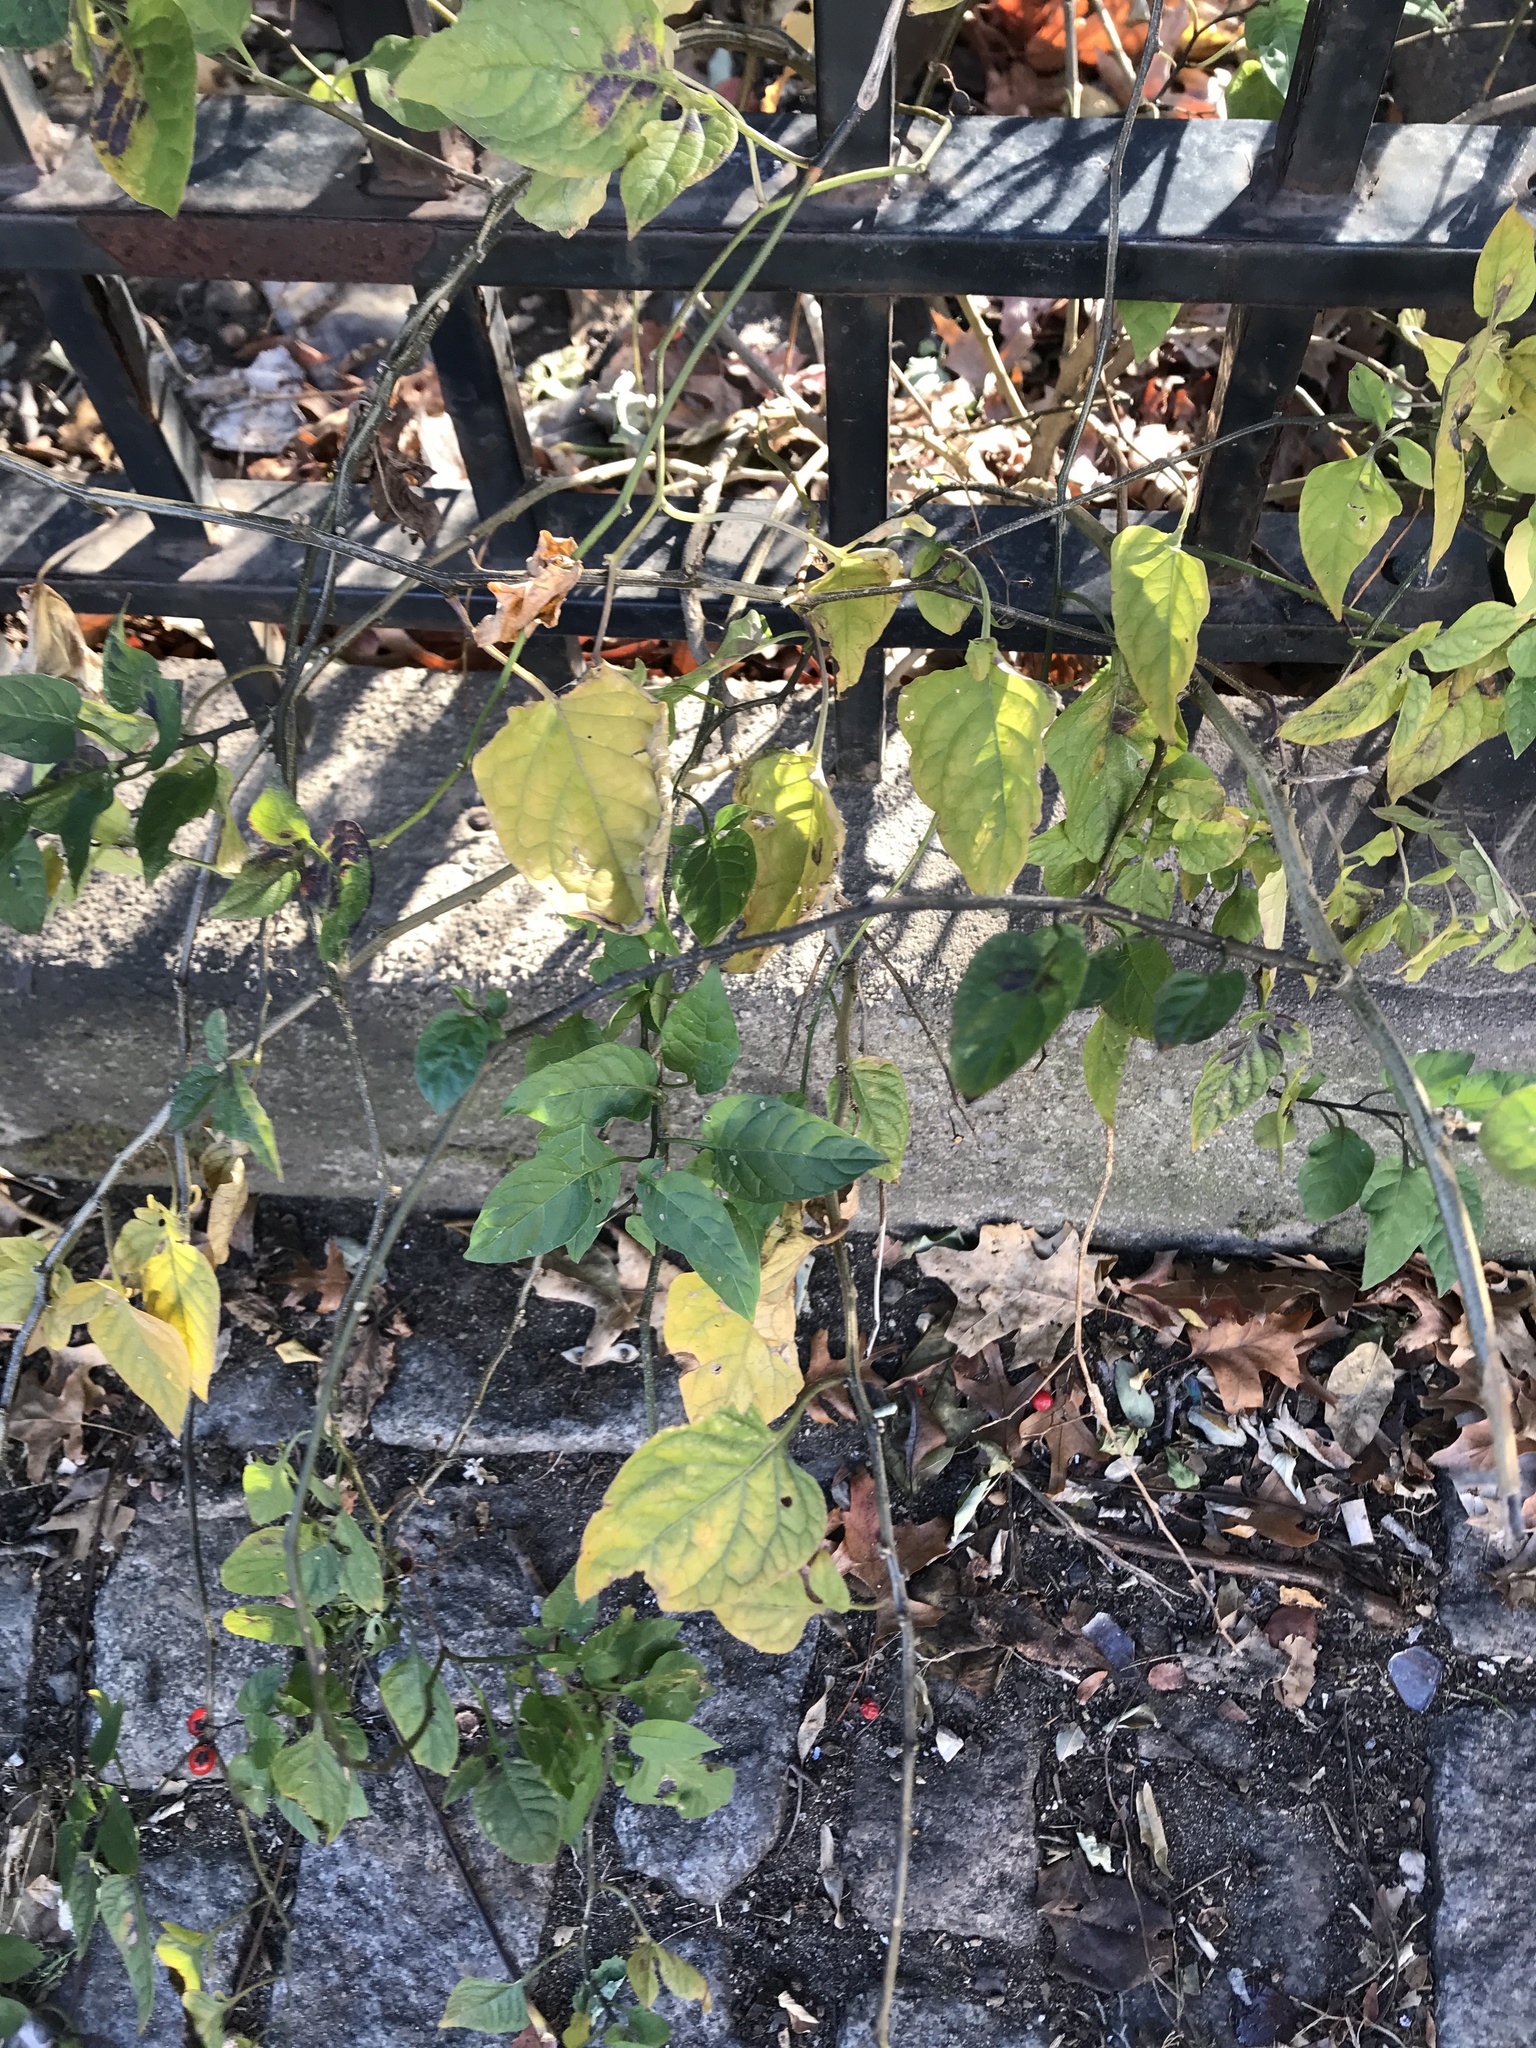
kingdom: Plantae
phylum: Tracheophyta
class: Magnoliopsida
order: Solanales
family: Solanaceae
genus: Solanum
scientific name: Solanum dulcamara
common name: Climbing nightshade
